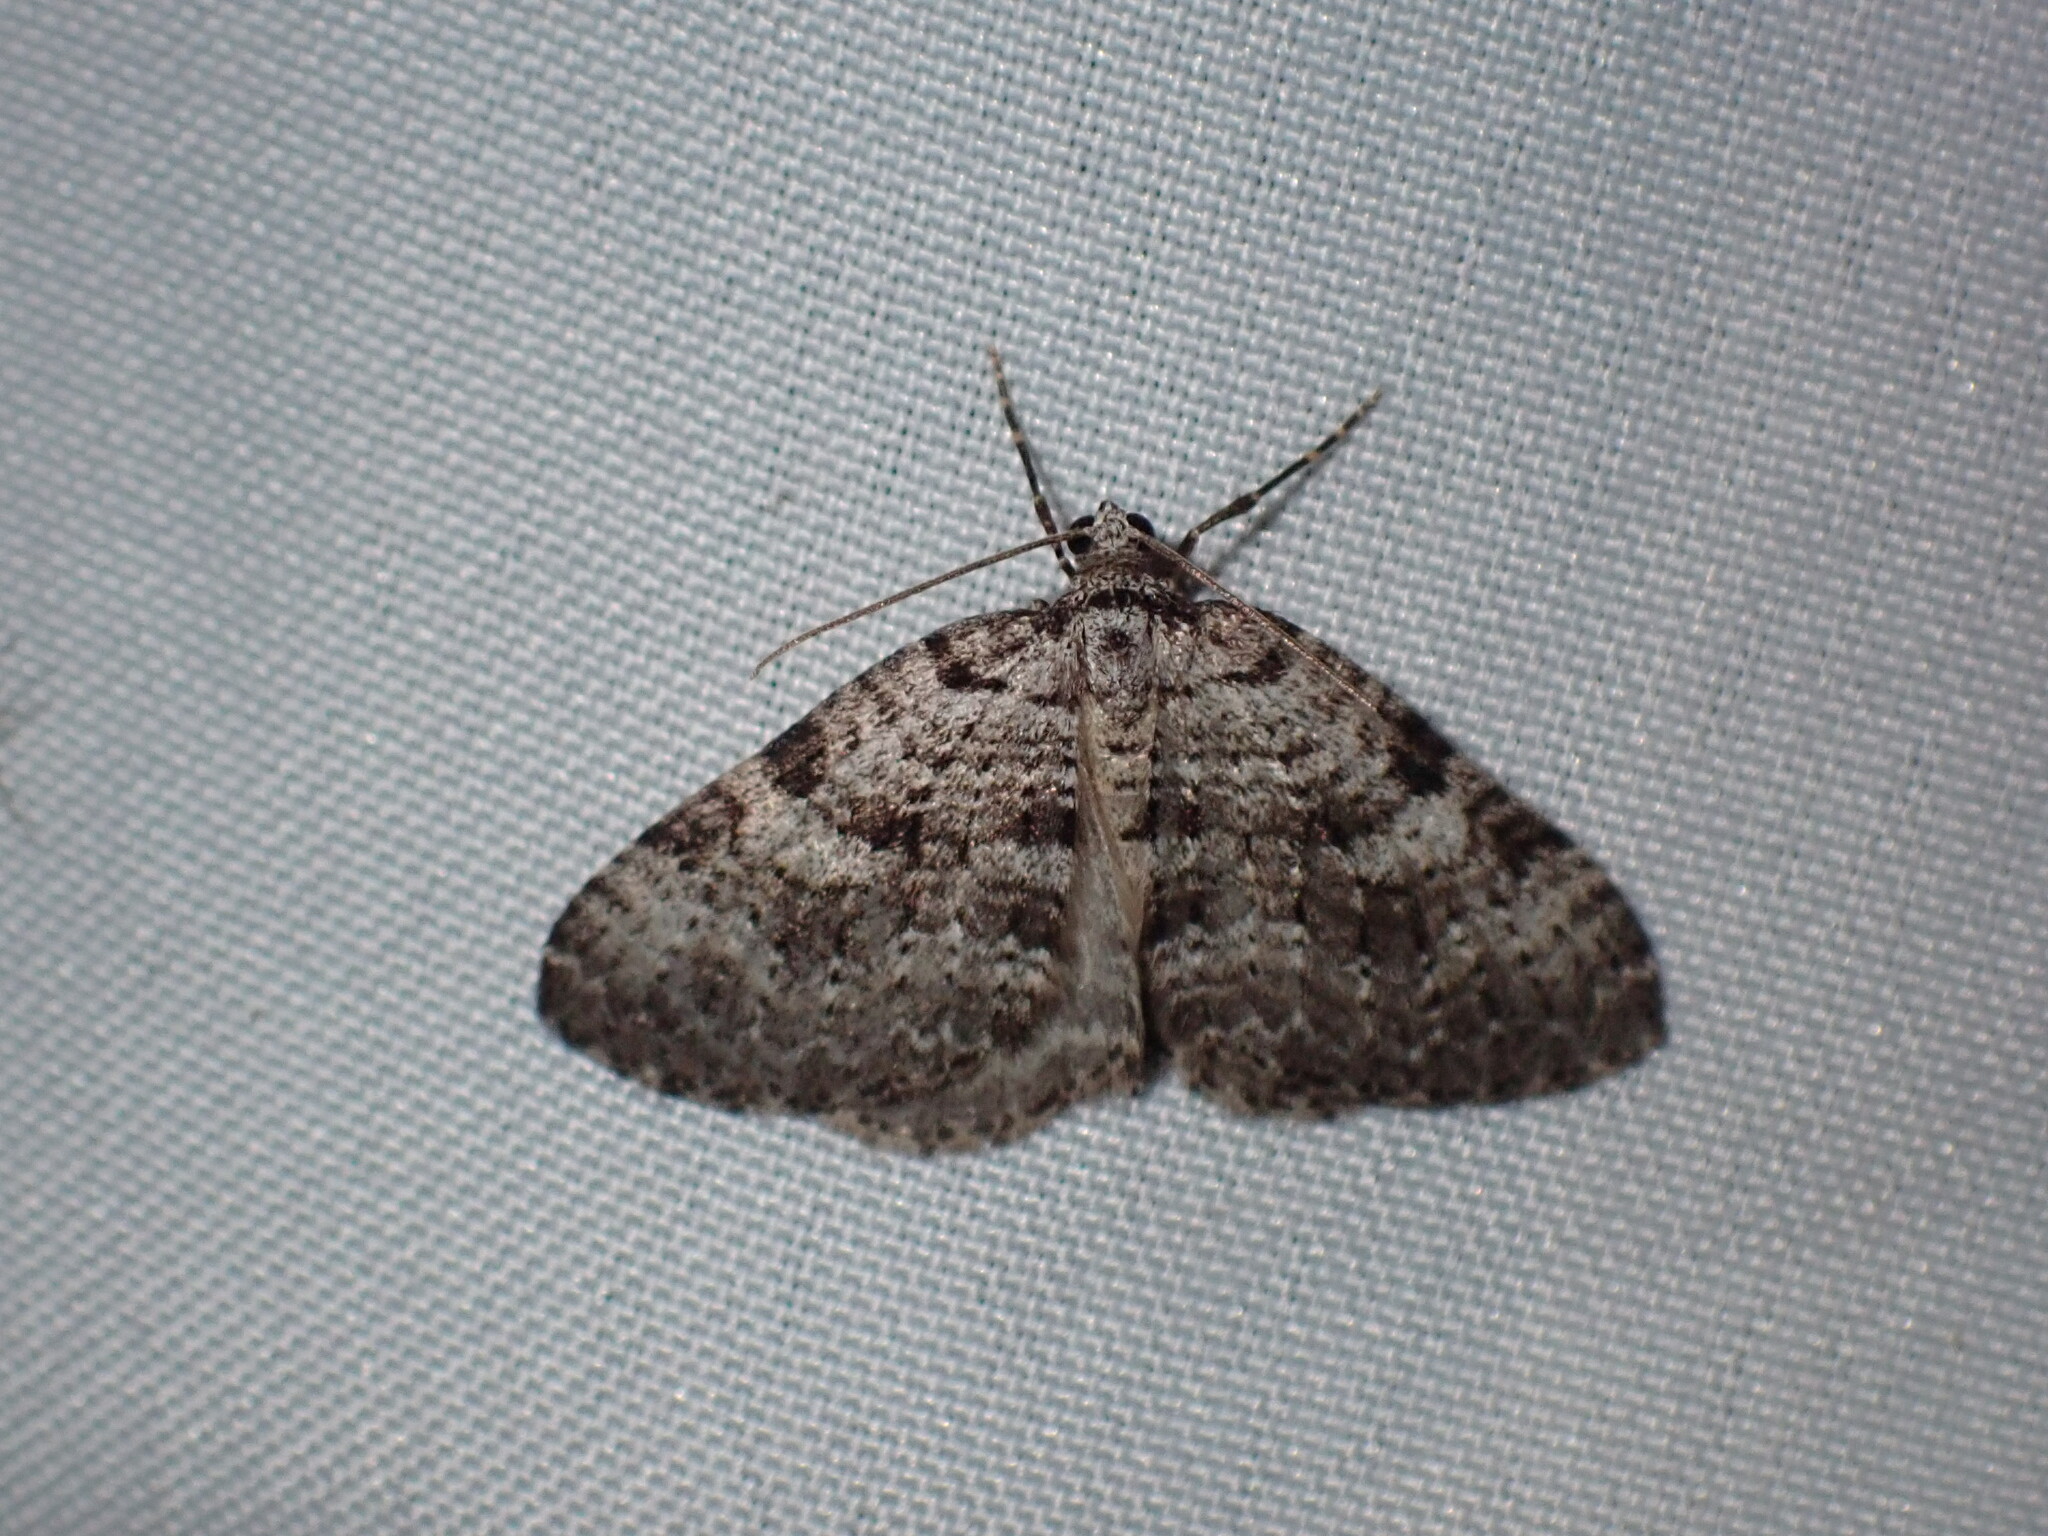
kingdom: Animalia
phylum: Arthropoda
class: Insecta
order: Lepidoptera
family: Geometridae
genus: Perizoma
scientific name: Perizoma curvilinea
